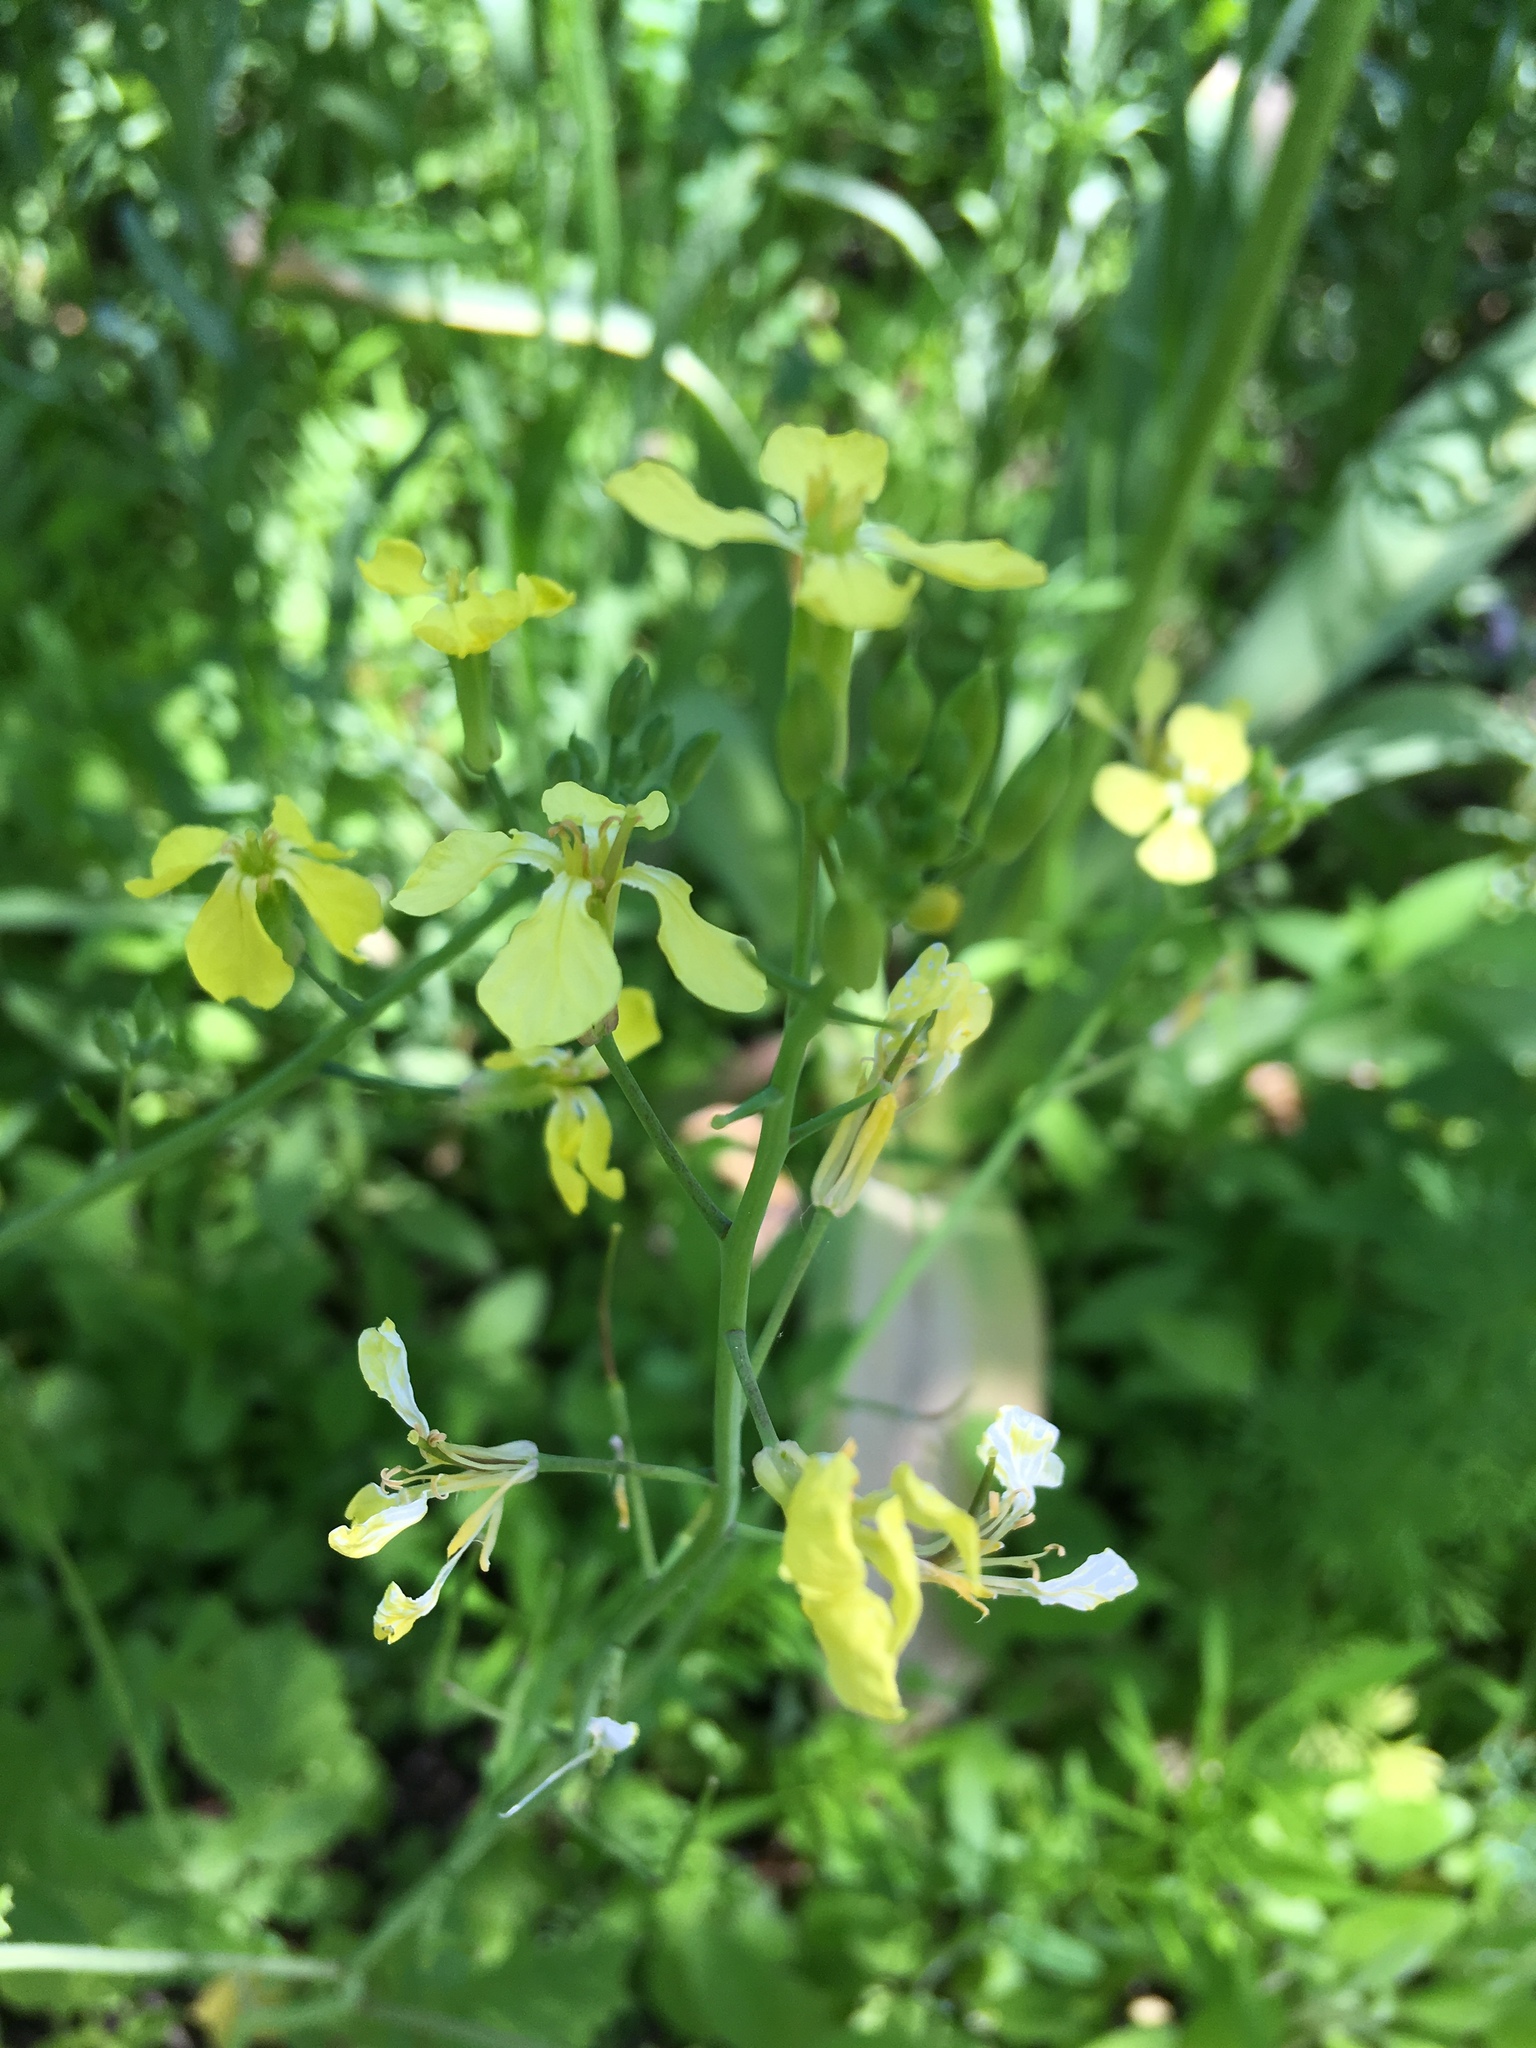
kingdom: Plantae
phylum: Tracheophyta
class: Magnoliopsida
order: Brassicales
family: Brassicaceae
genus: Raphanus
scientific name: Raphanus raphanistrum
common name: Wild radish
